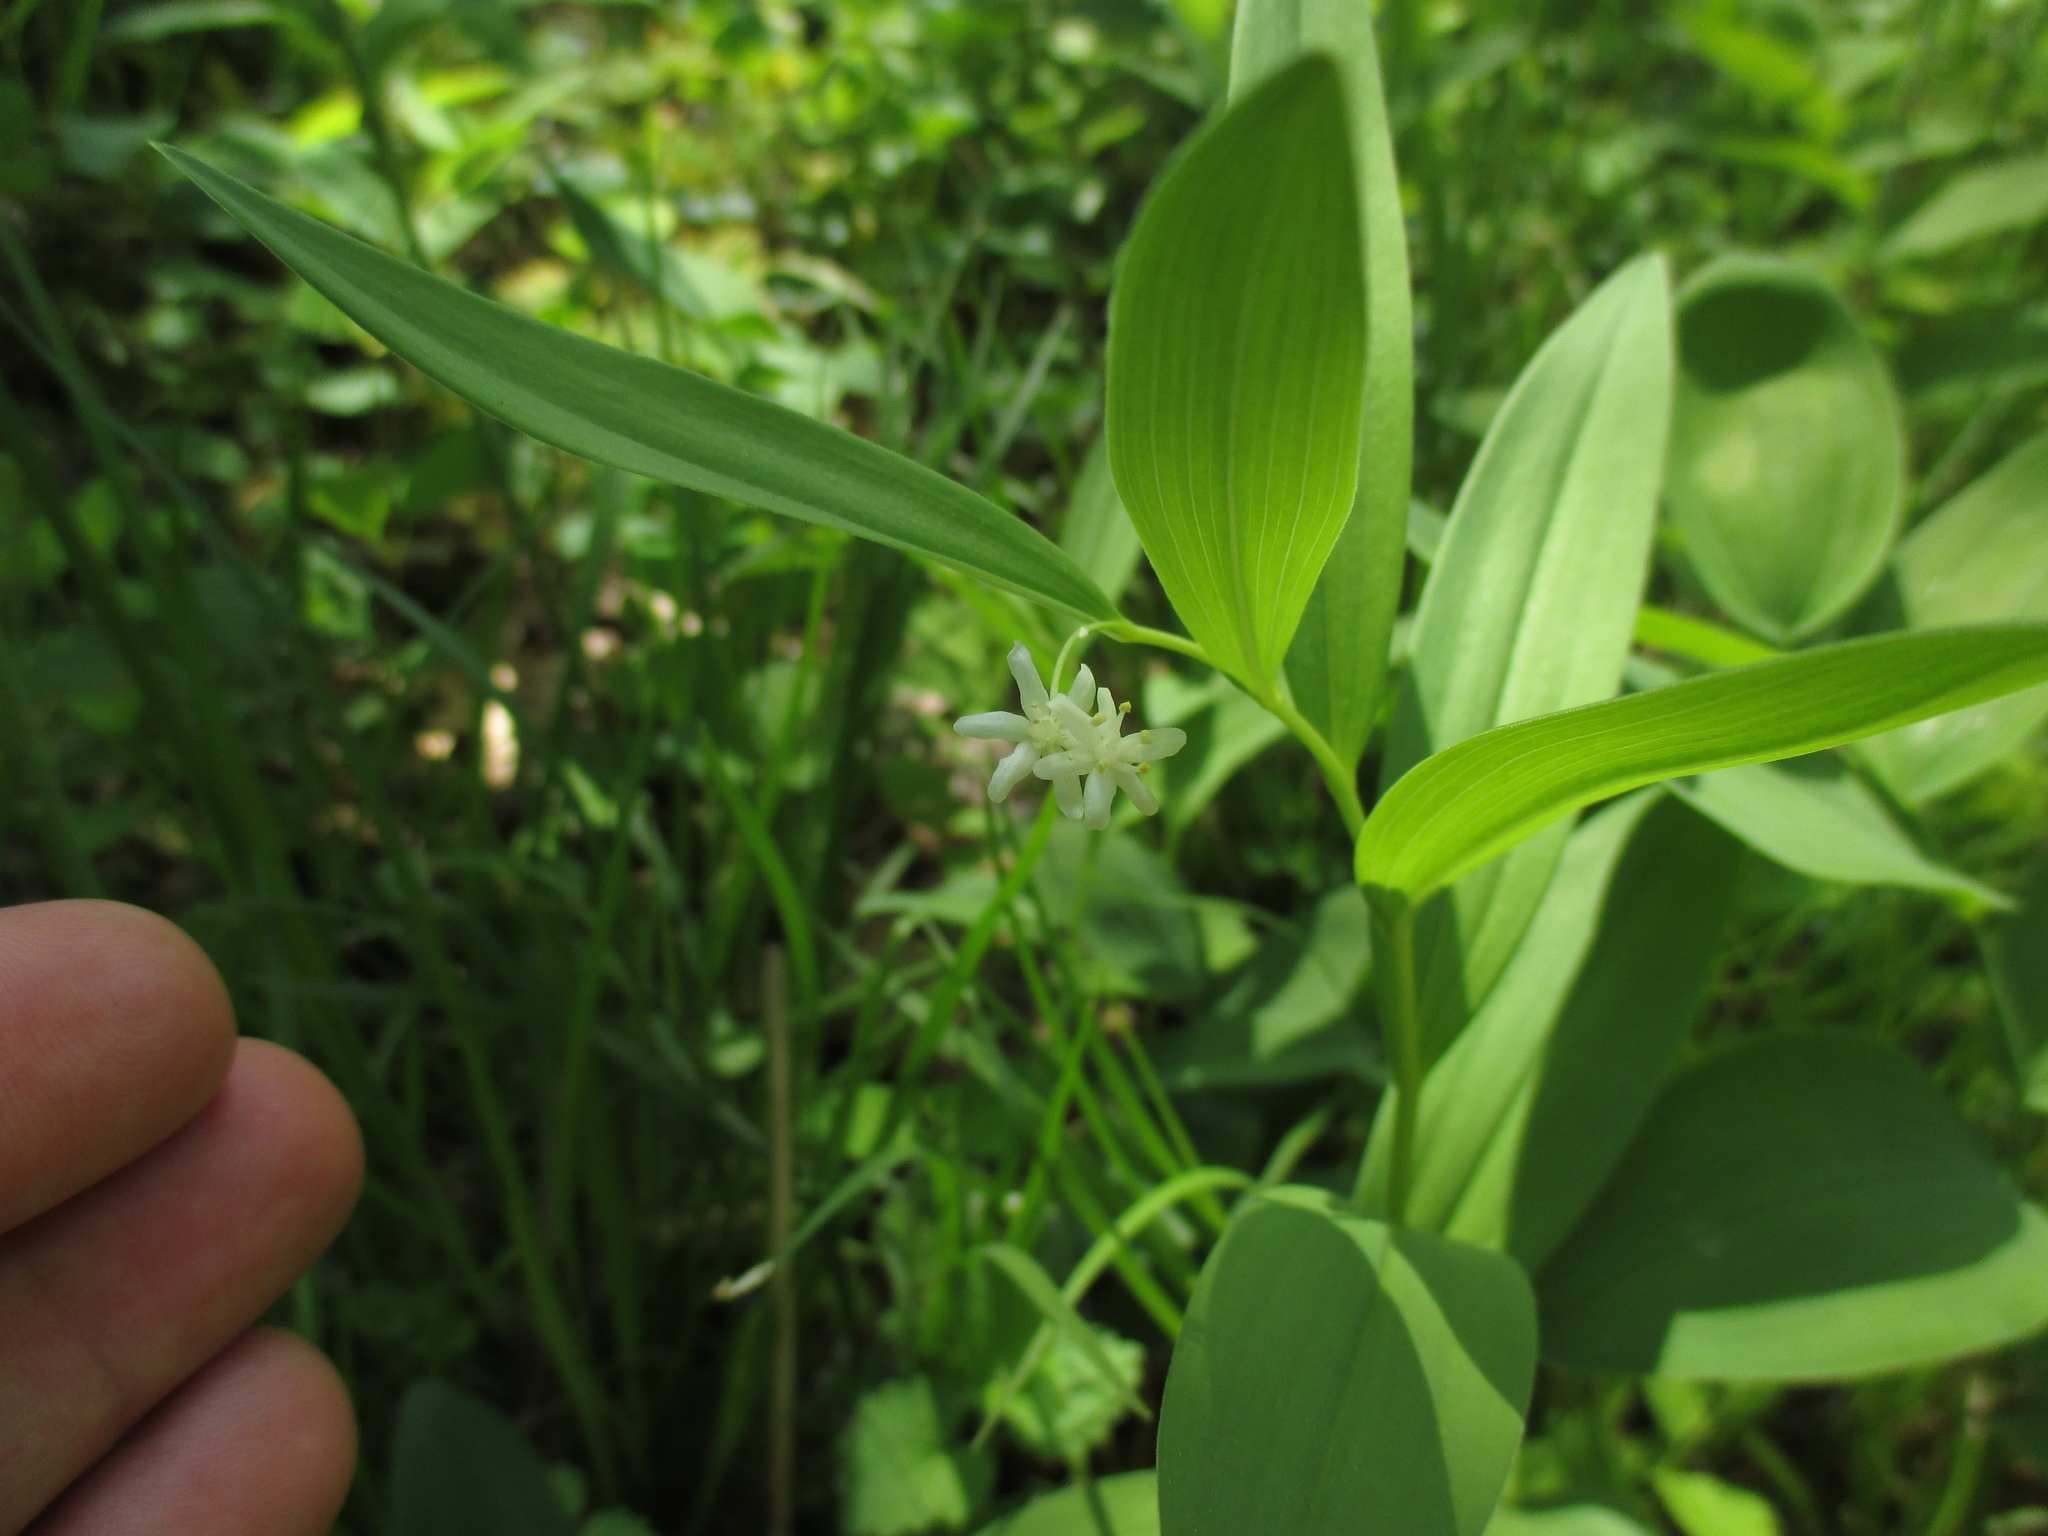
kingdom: Plantae
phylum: Tracheophyta
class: Liliopsida
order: Asparagales
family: Asparagaceae
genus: Maianthemum
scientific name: Maianthemum stellatum
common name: Little false solomon's seal
